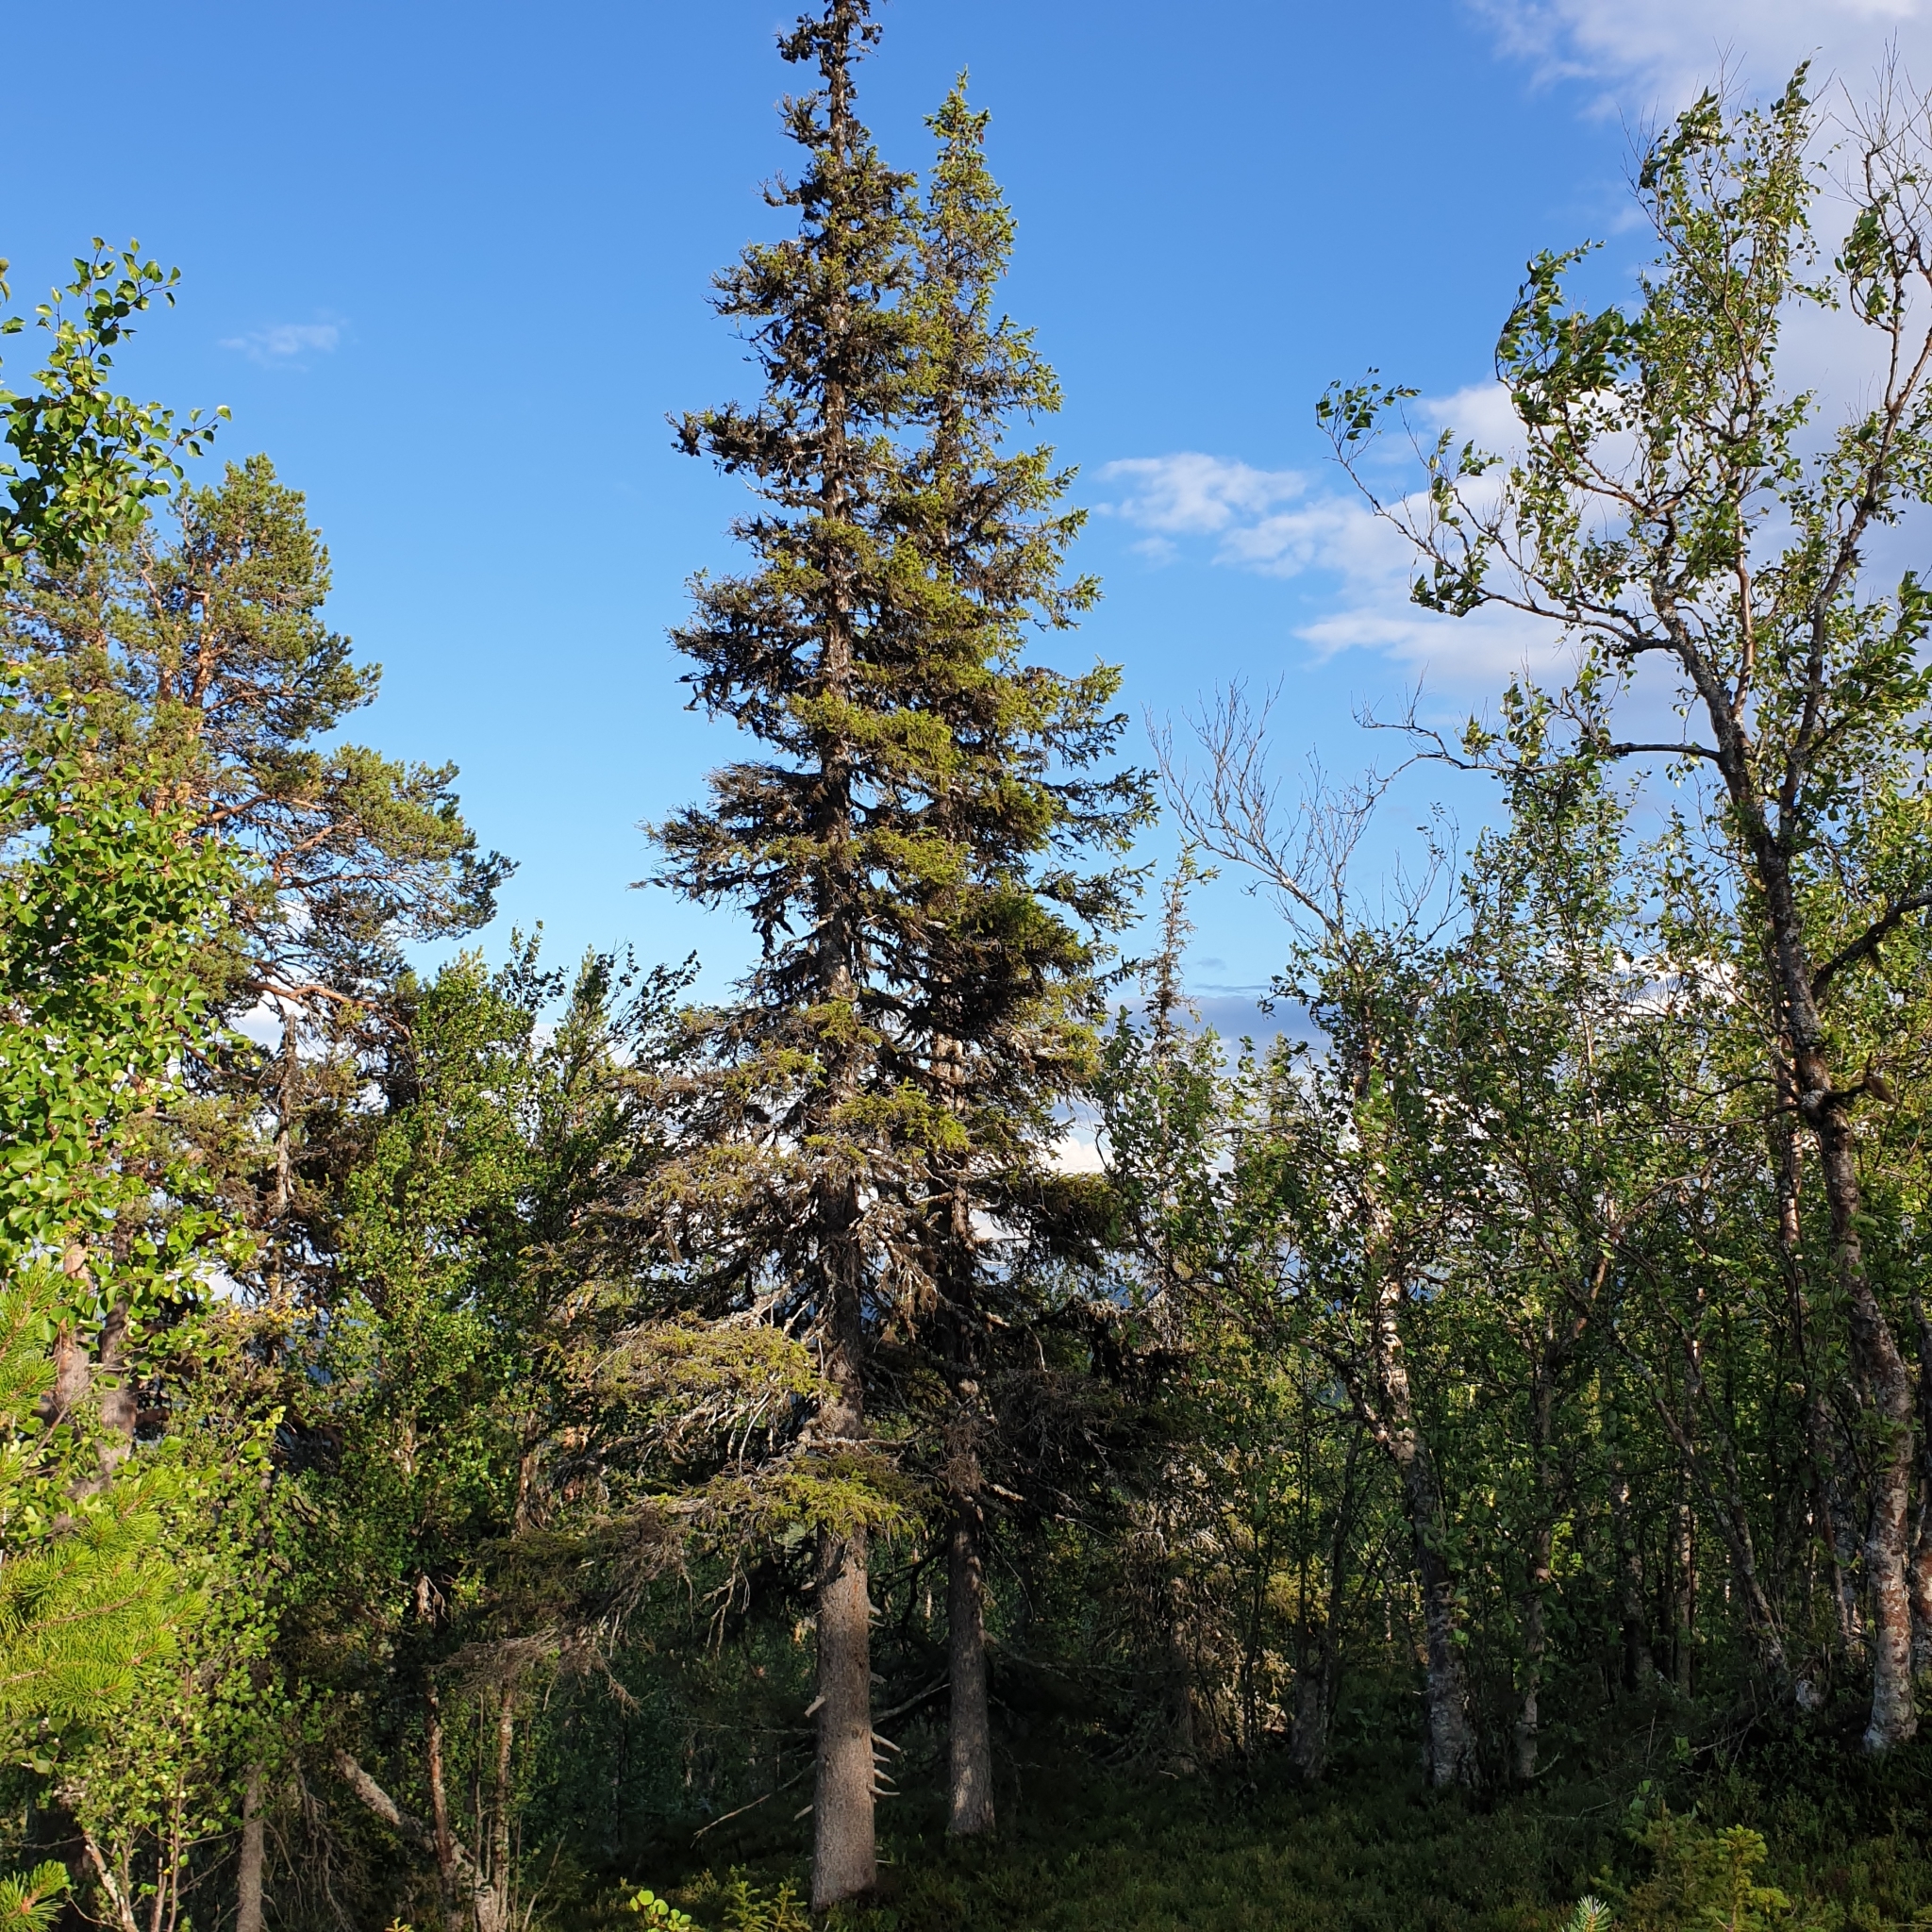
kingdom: Plantae
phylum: Tracheophyta
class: Pinopsida
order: Pinales
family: Pinaceae
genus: Picea
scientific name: Picea abies
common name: Norway spruce
